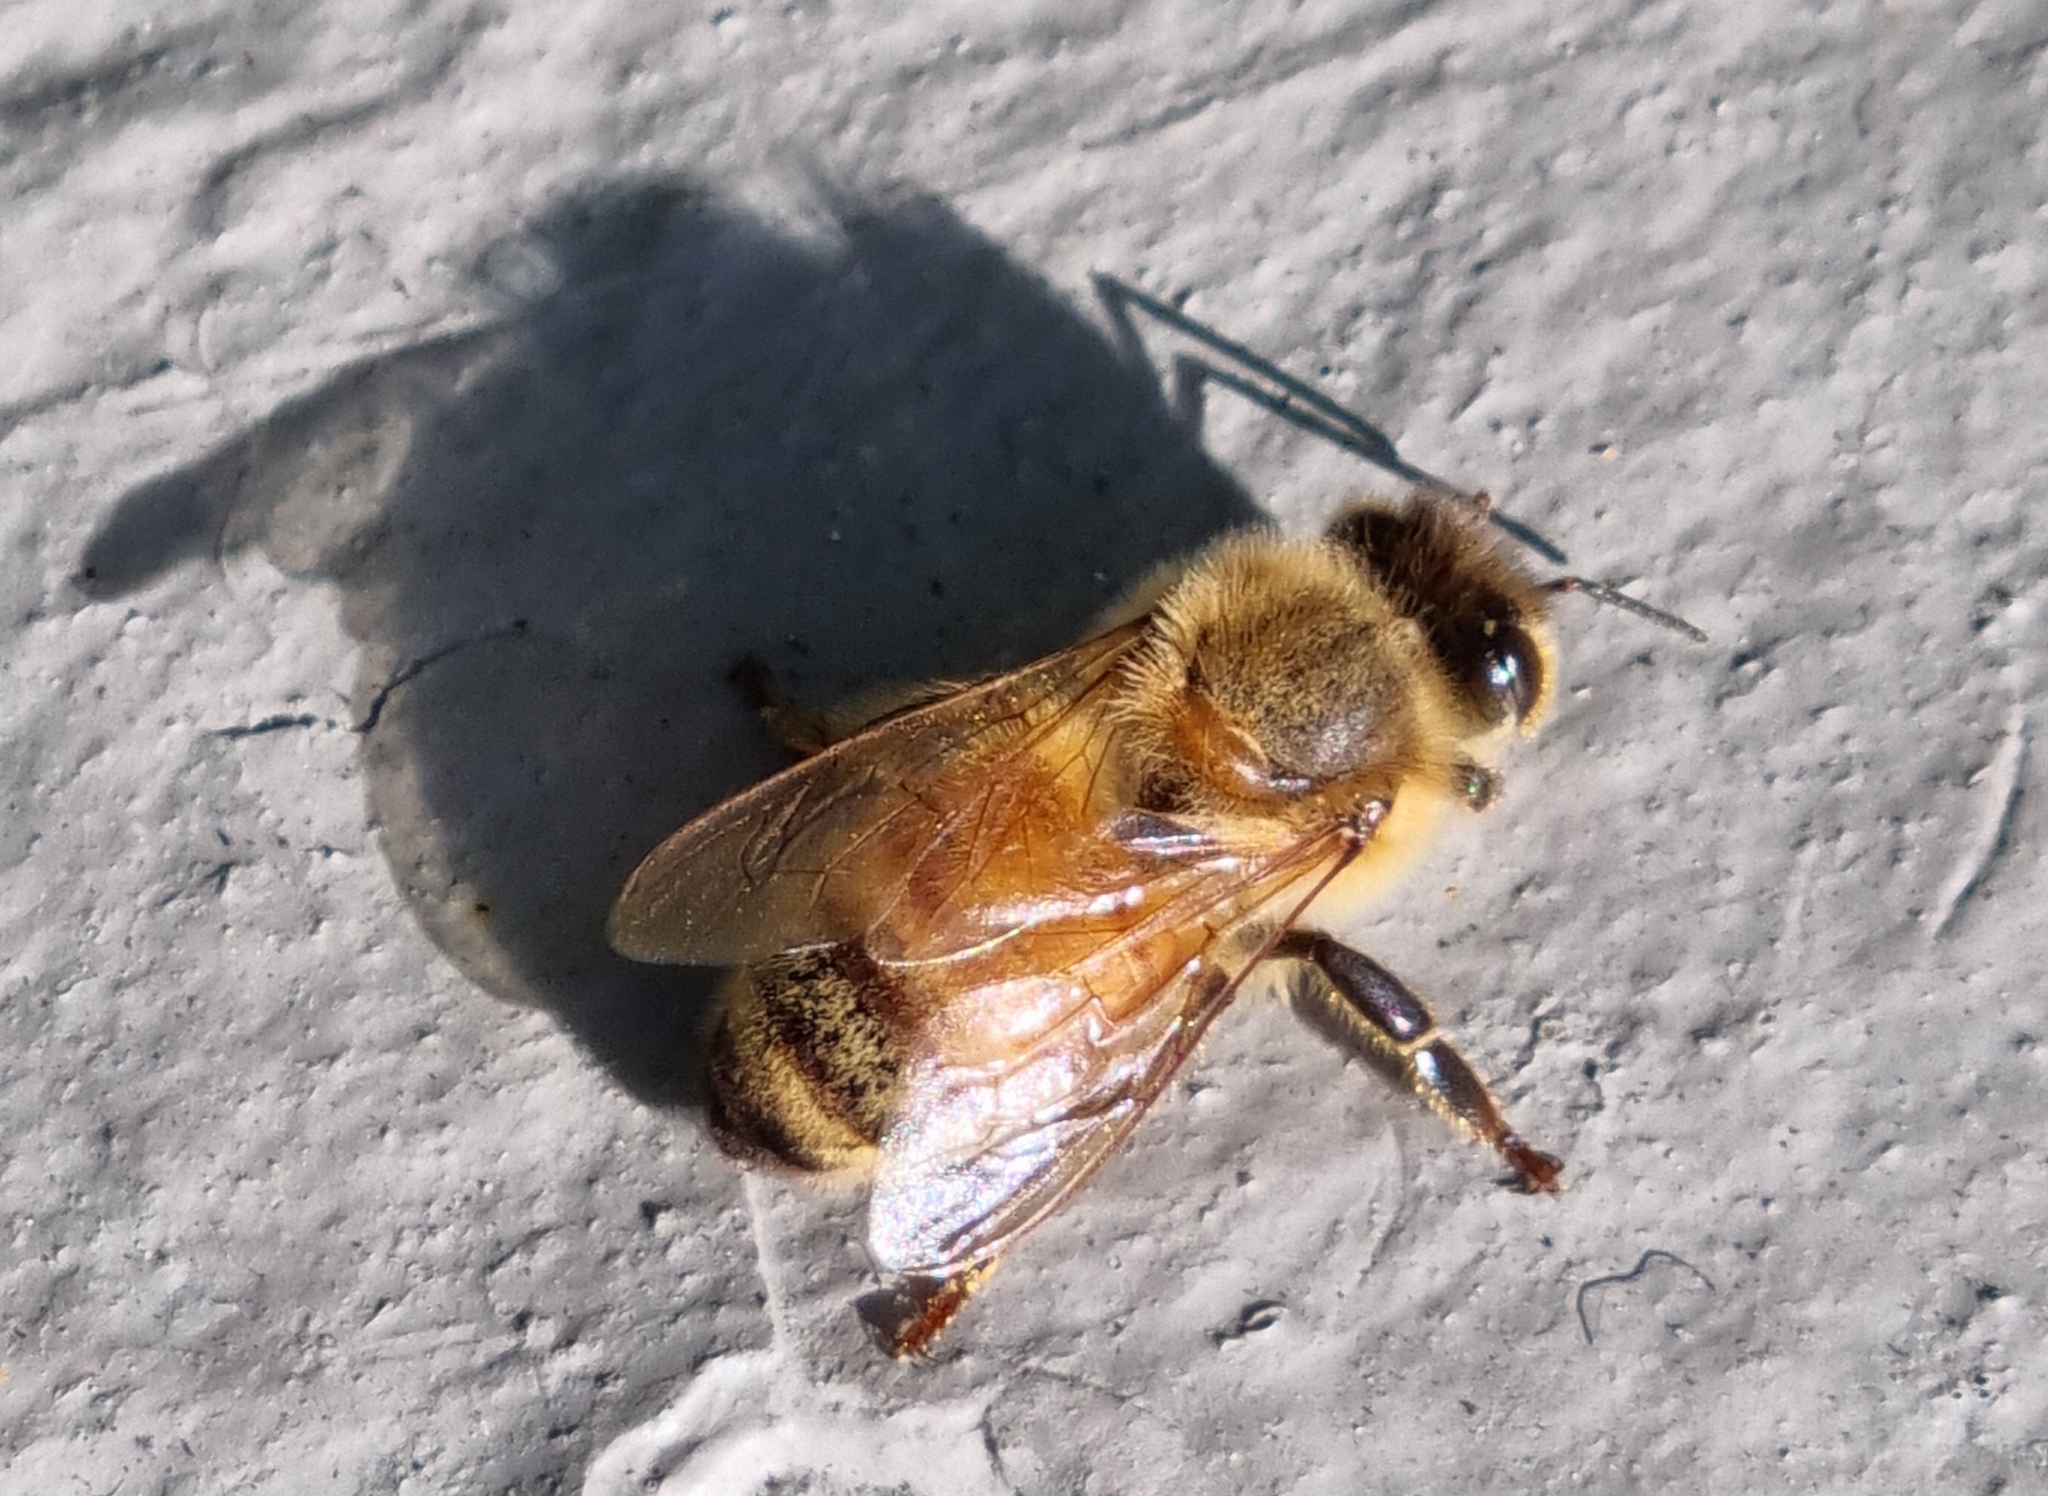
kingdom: Animalia
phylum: Arthropoda
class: Insecta
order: Hymenoptera
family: Apidae
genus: Apis
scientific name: Apis mellifera
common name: Honey bee
